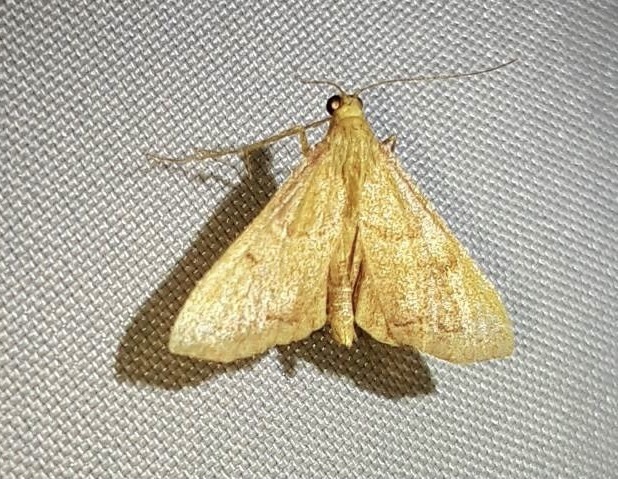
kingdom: Animalia
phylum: Arthropoda
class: Insecta
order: Lepidoptera
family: Pyralidae
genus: Endotricha
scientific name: Endotricha flammealis
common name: Rosy tabby
